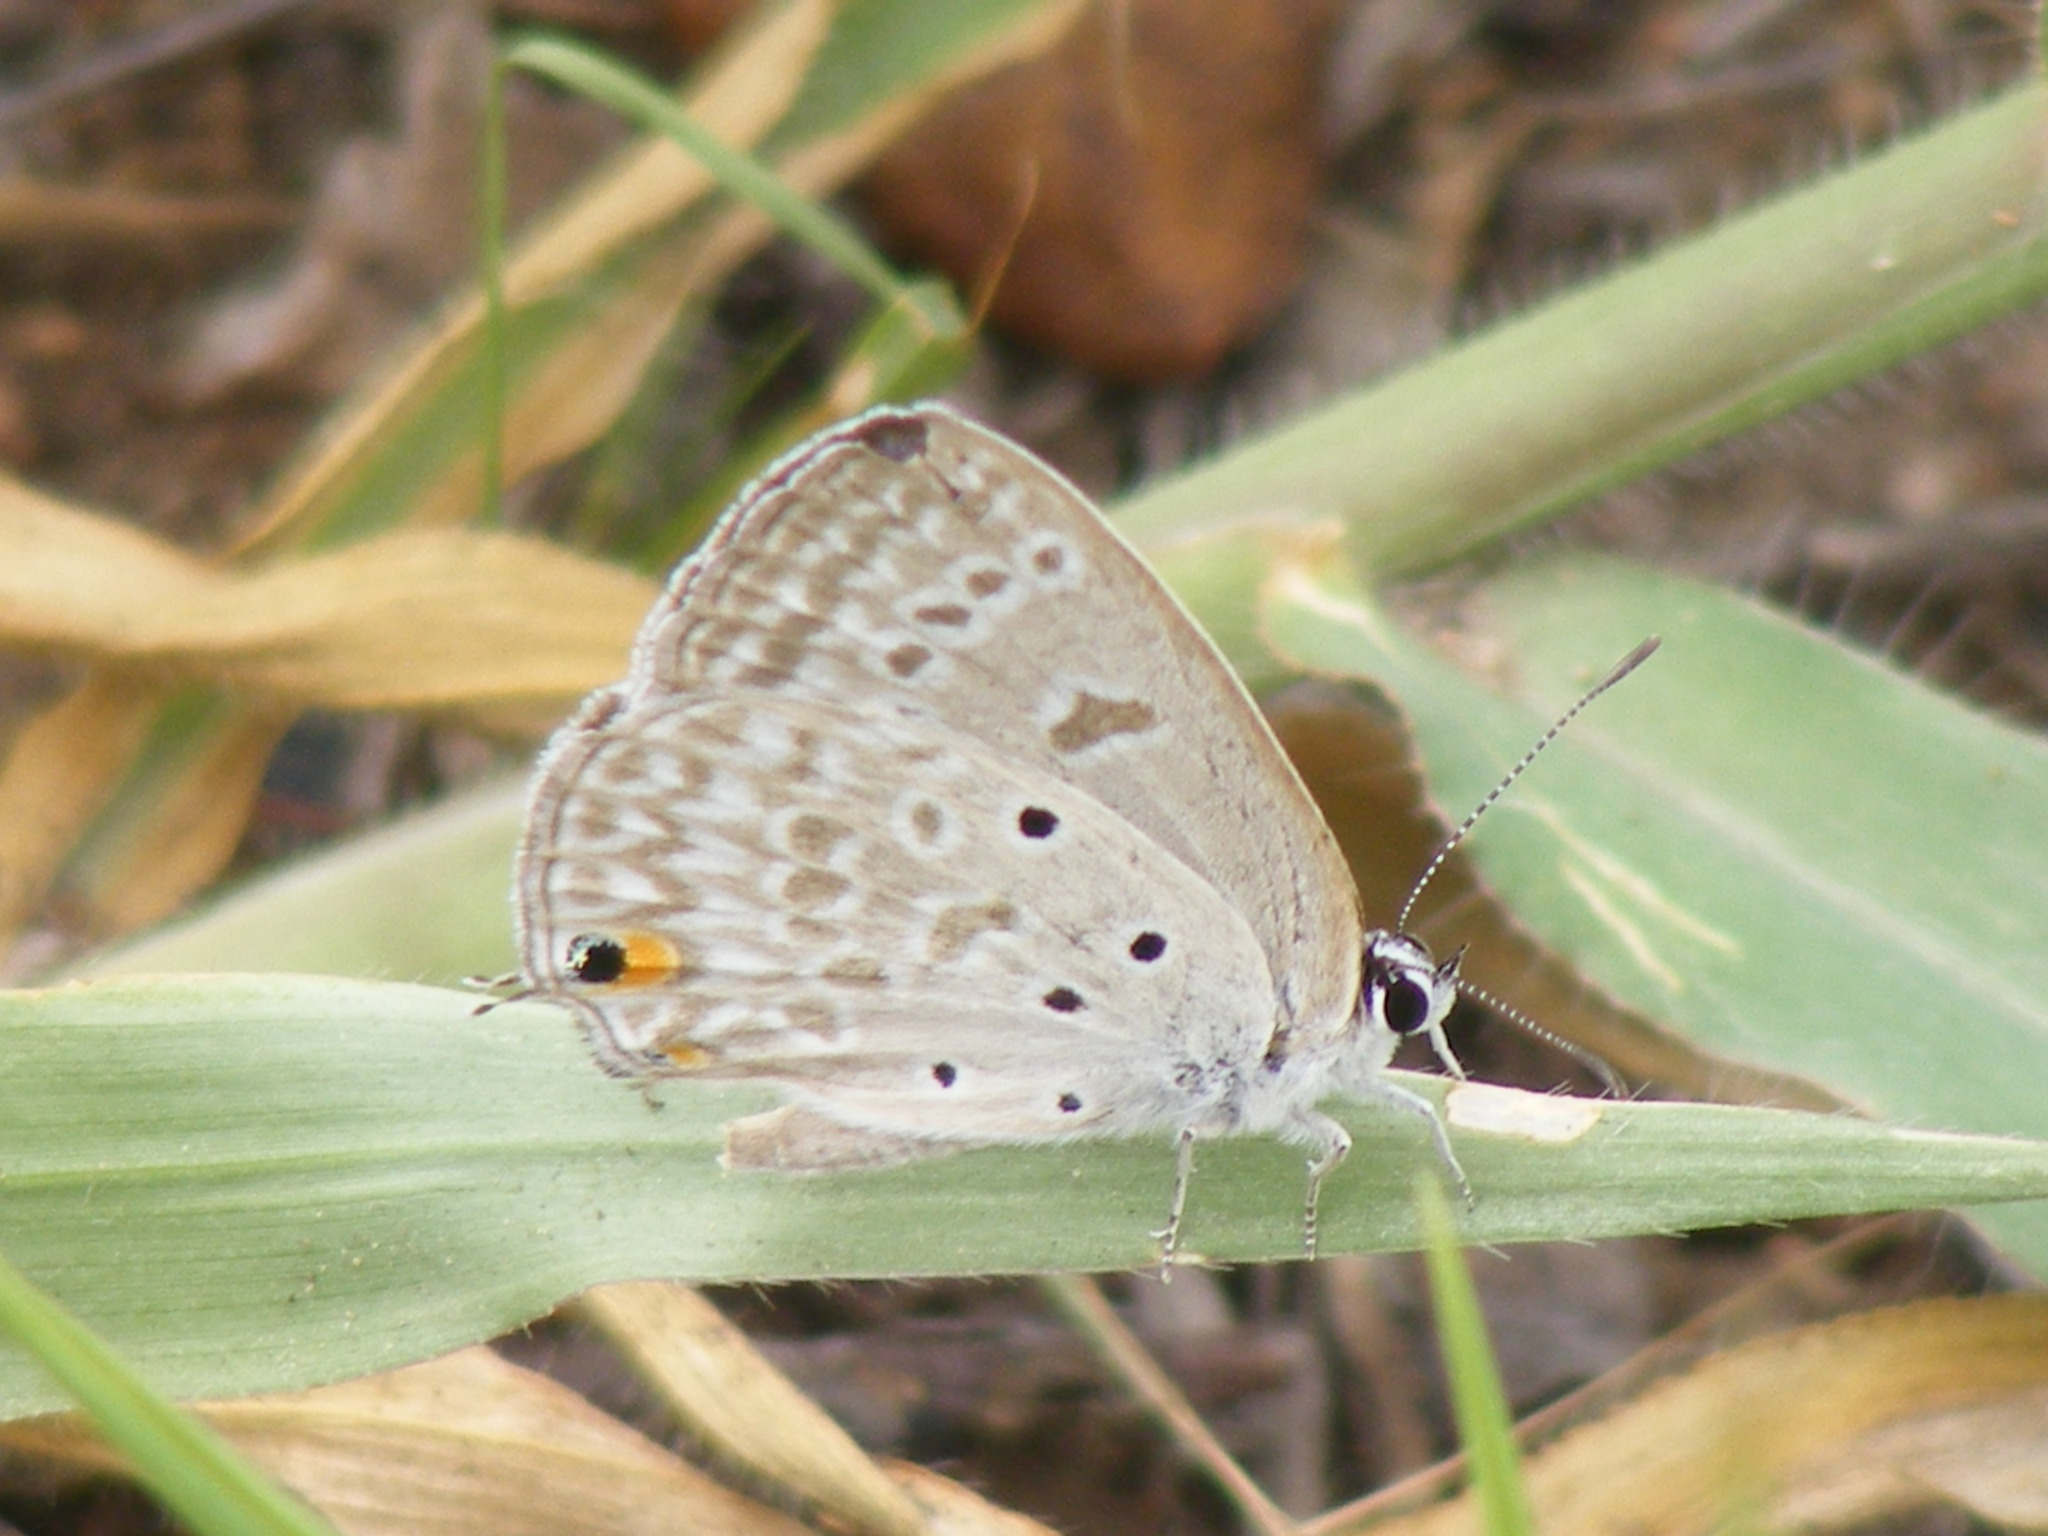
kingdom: Animalia
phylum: Arthropoda
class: Insecta
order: Lepidoptera
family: Lycaenidae
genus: Lepidochrysops
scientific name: Lepidochrysops patricia
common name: Patricia blue
